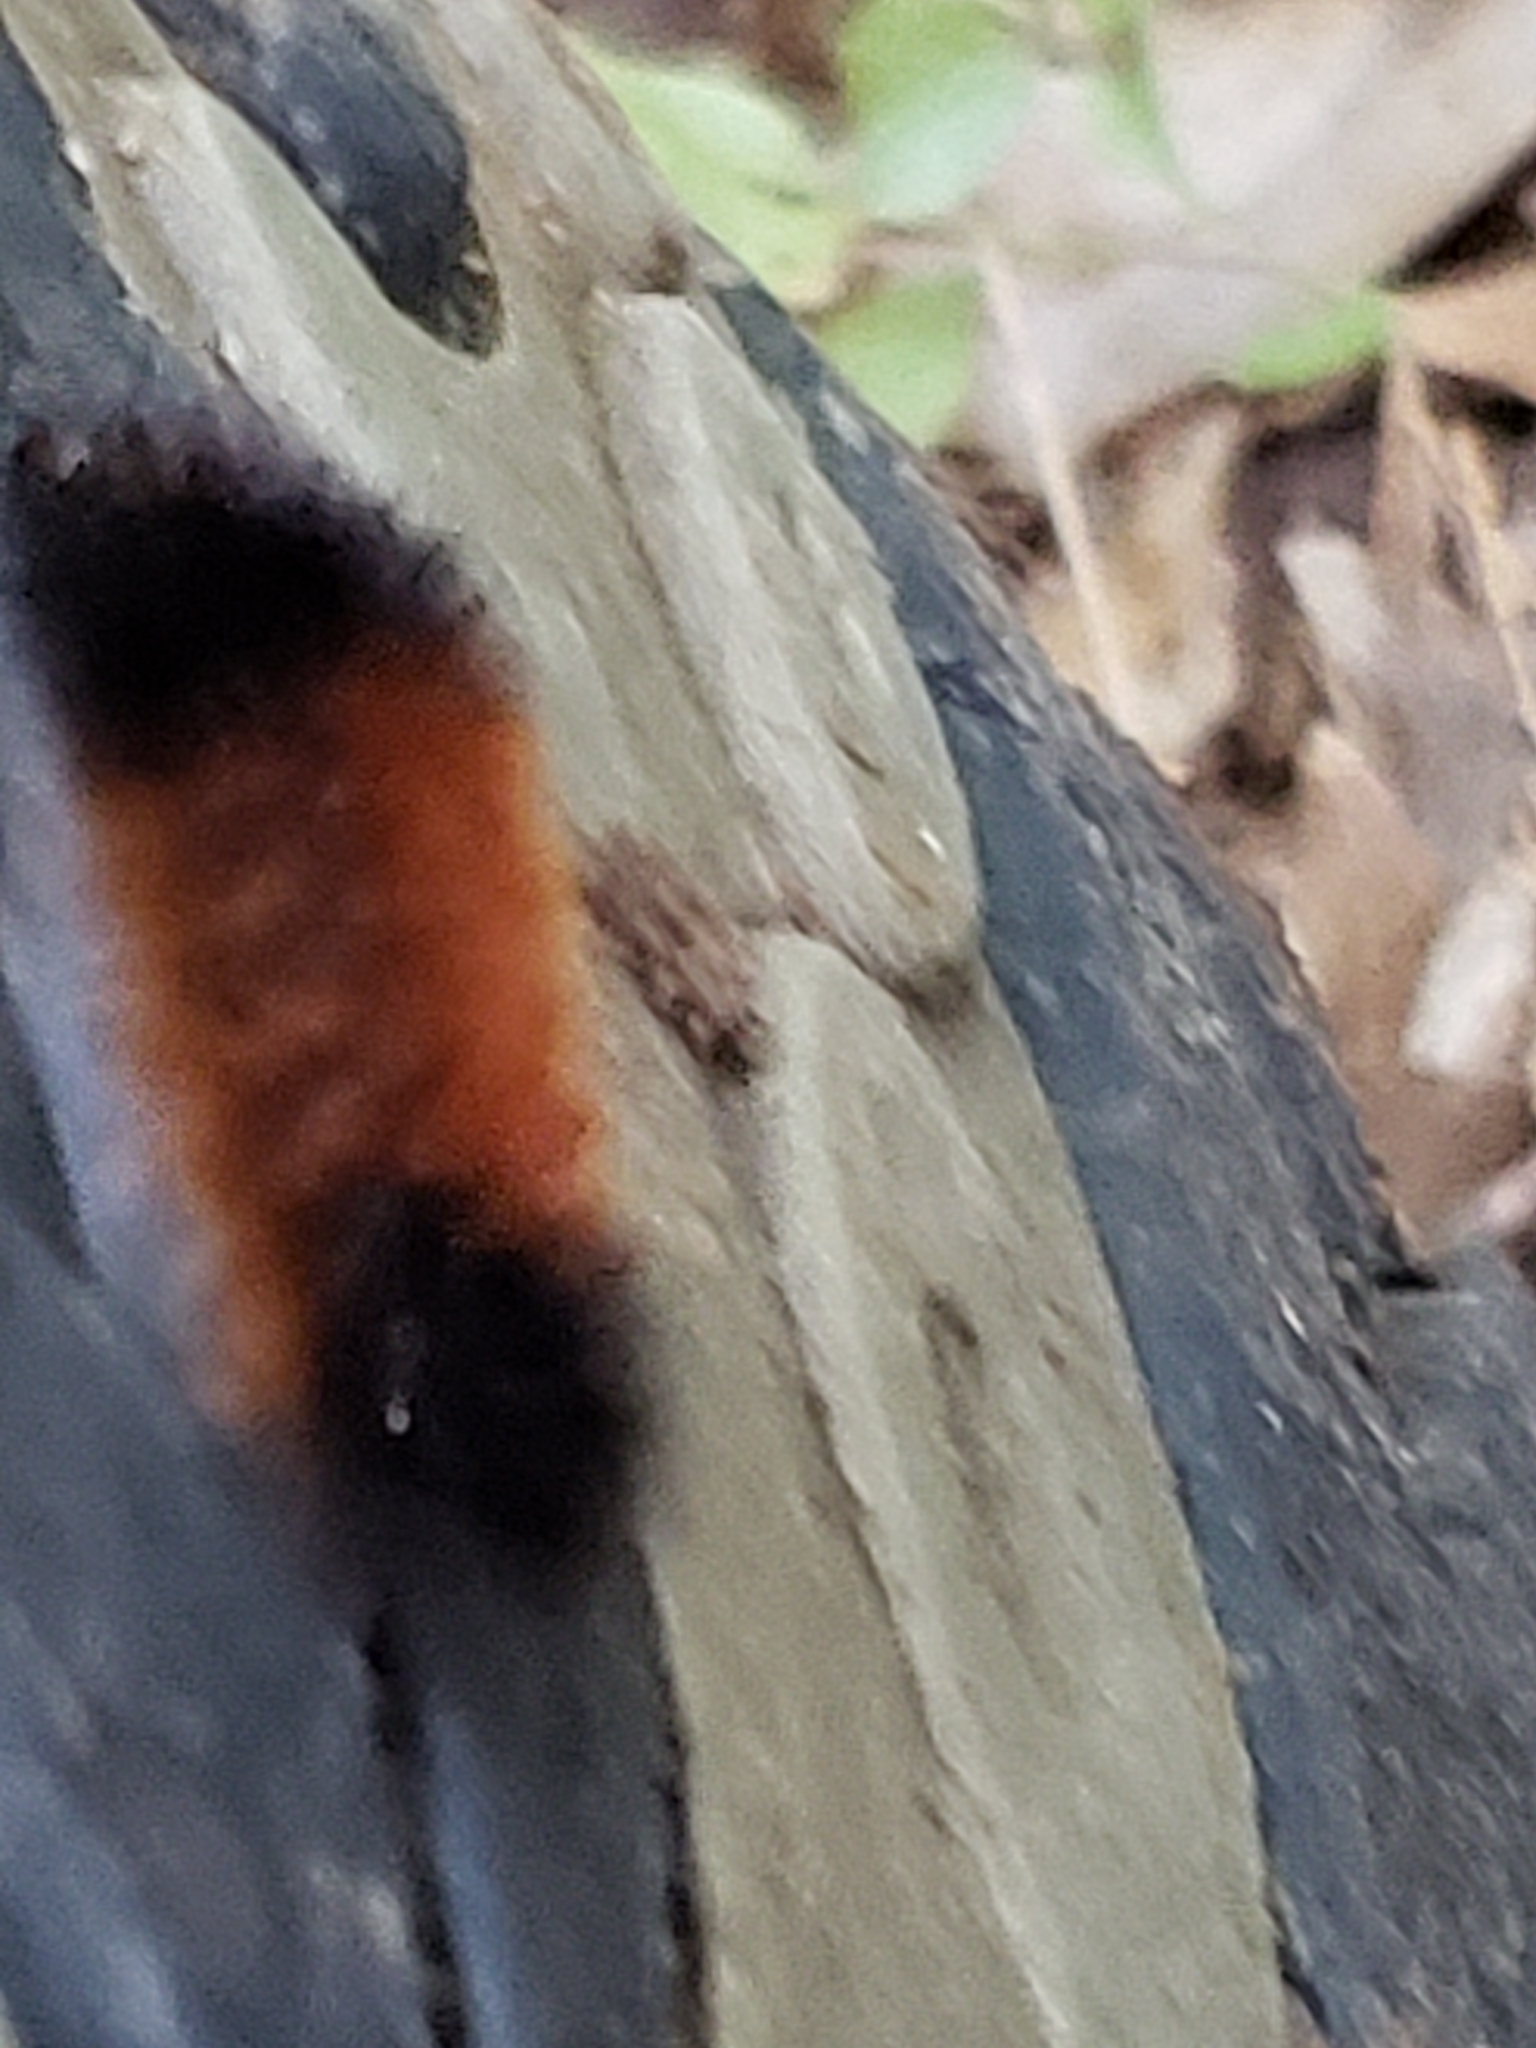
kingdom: Animalia
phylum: Arthropoda
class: Insecta
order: Lepidoptera
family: Erebidae
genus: Pyrrharctia
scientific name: Pyrrharctia isabella
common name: Isabella tiger moth
